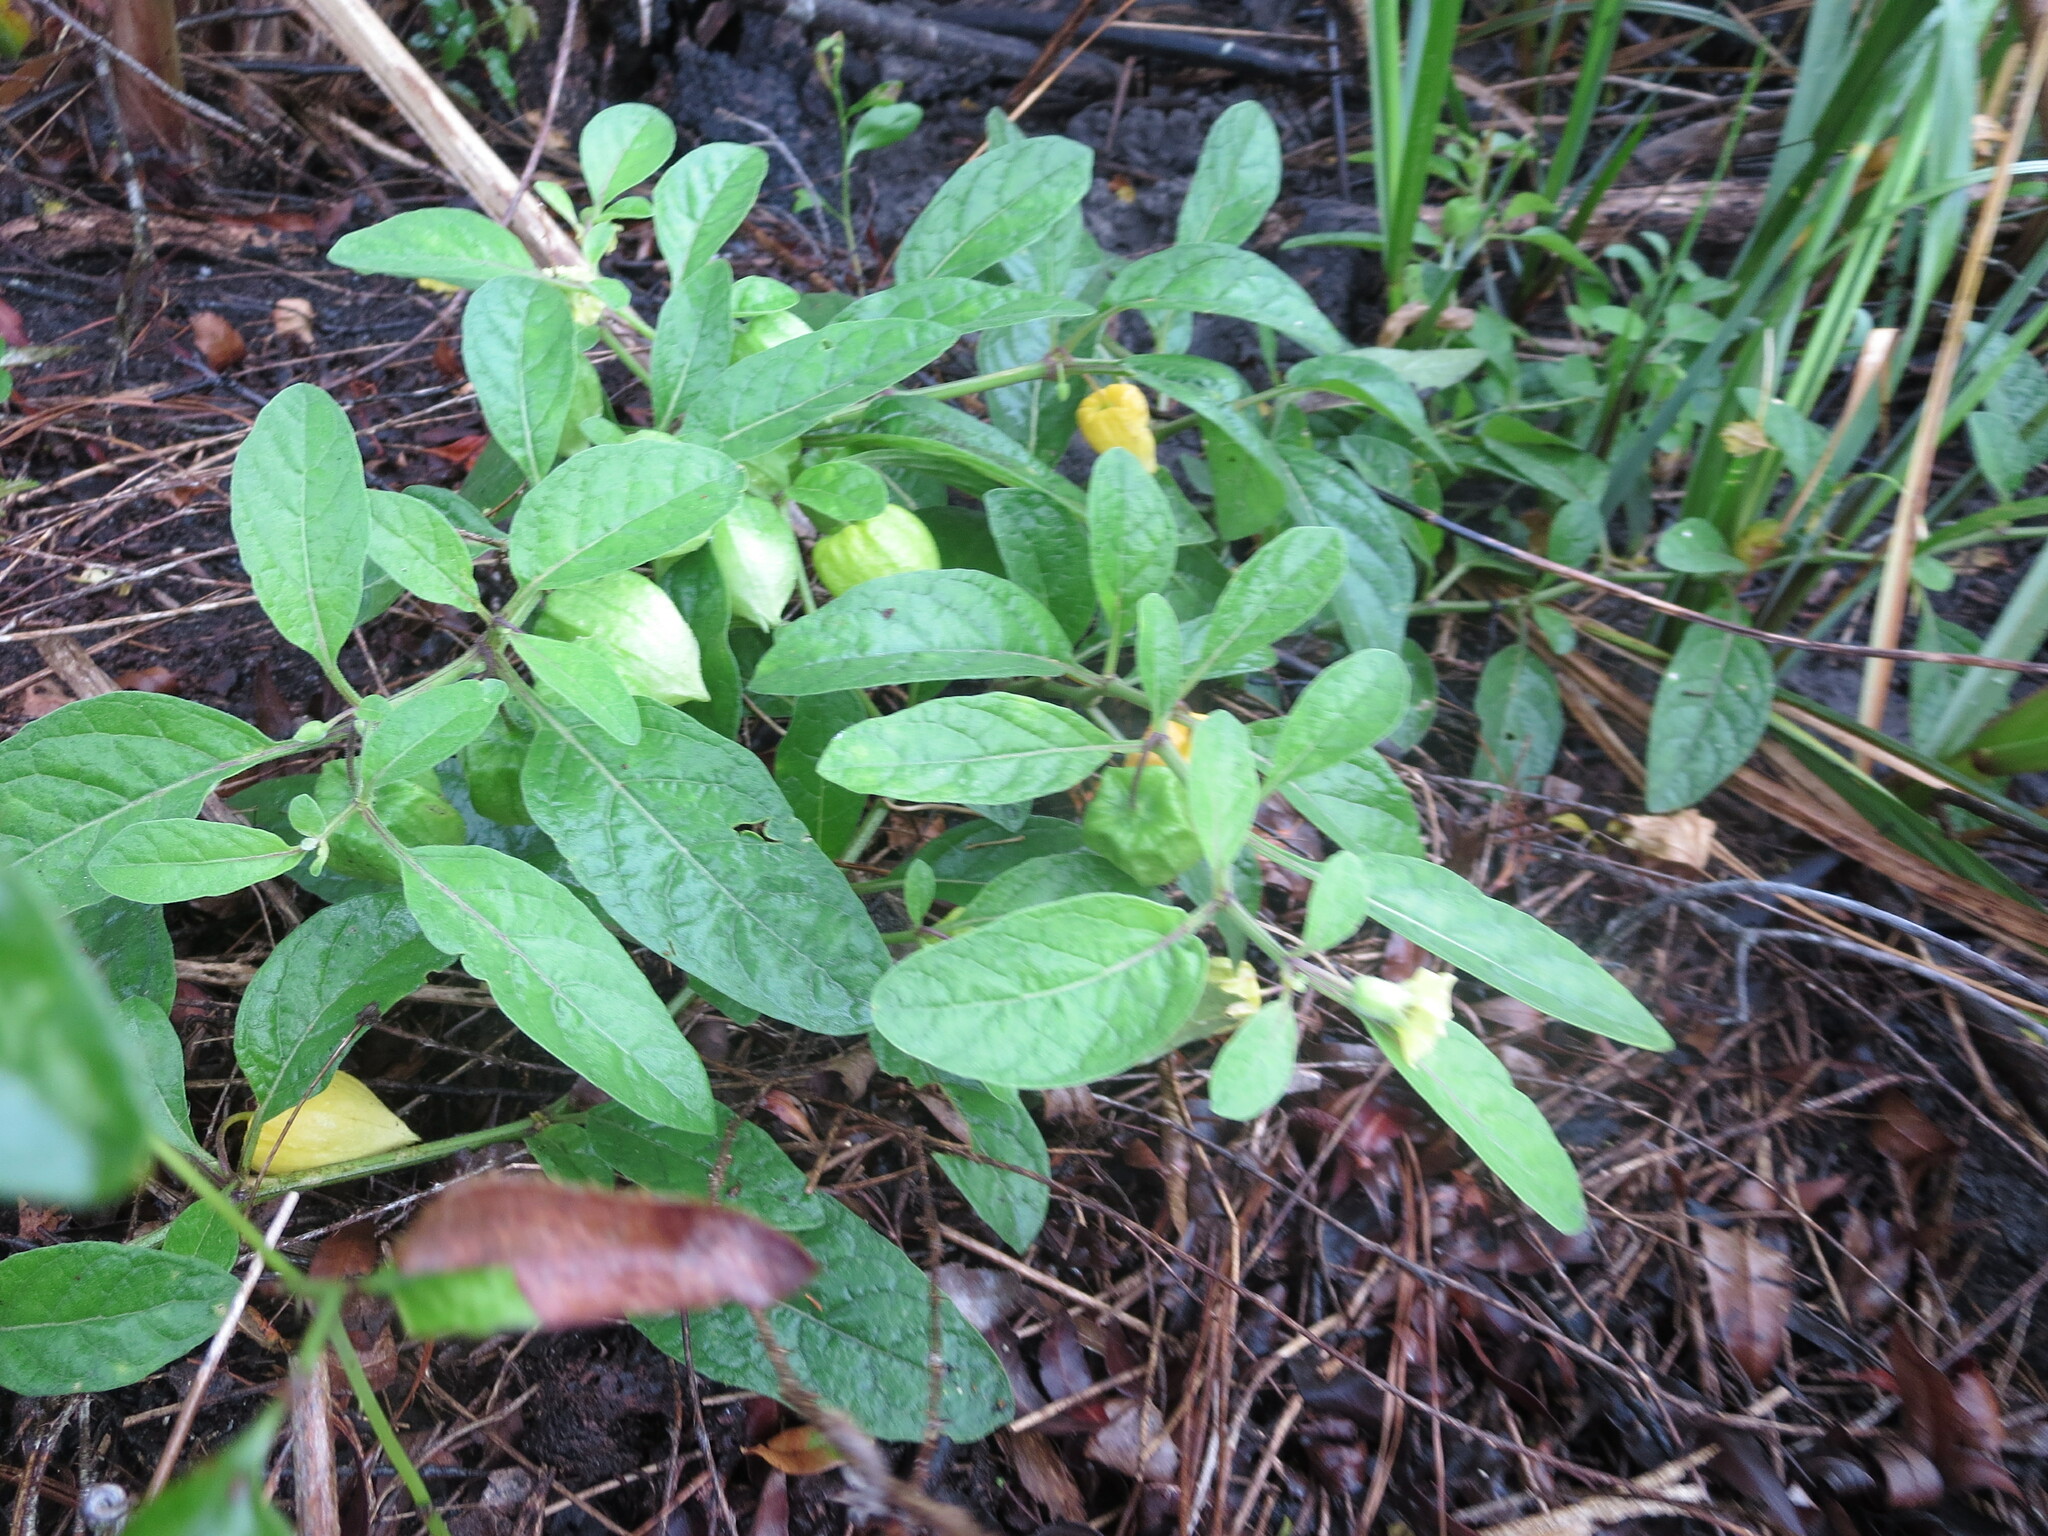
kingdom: Plantae
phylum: Tracheophyta
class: Magnoliopsida
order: Solanales
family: Solanaceae
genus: Physalis
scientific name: Physalis walteri
